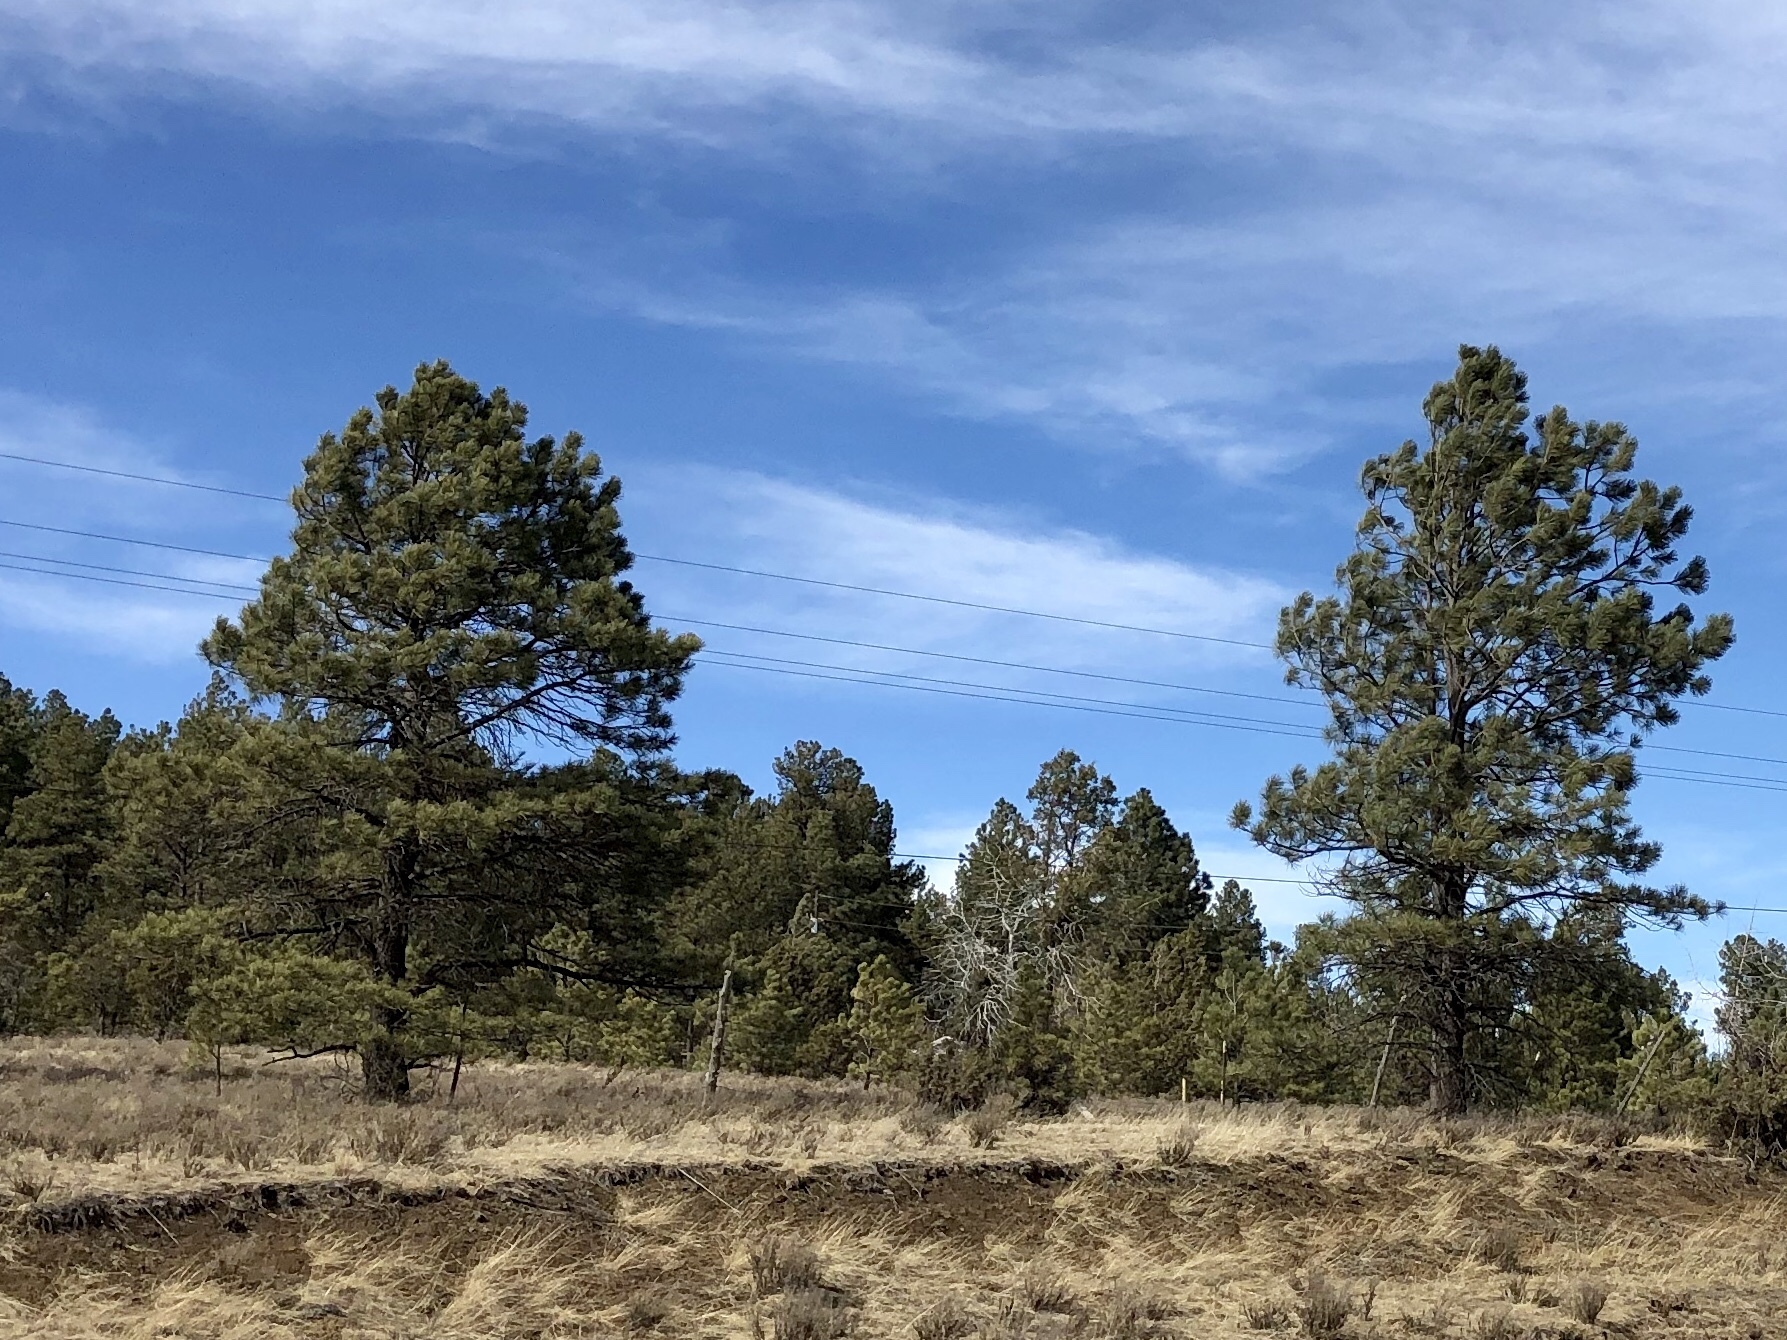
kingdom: Plantae
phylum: Tracheophyta
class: Pinopsida
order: Pinales
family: Pinaceae
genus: Pinus
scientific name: Pinus ponderosa
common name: Western yellow-pine
